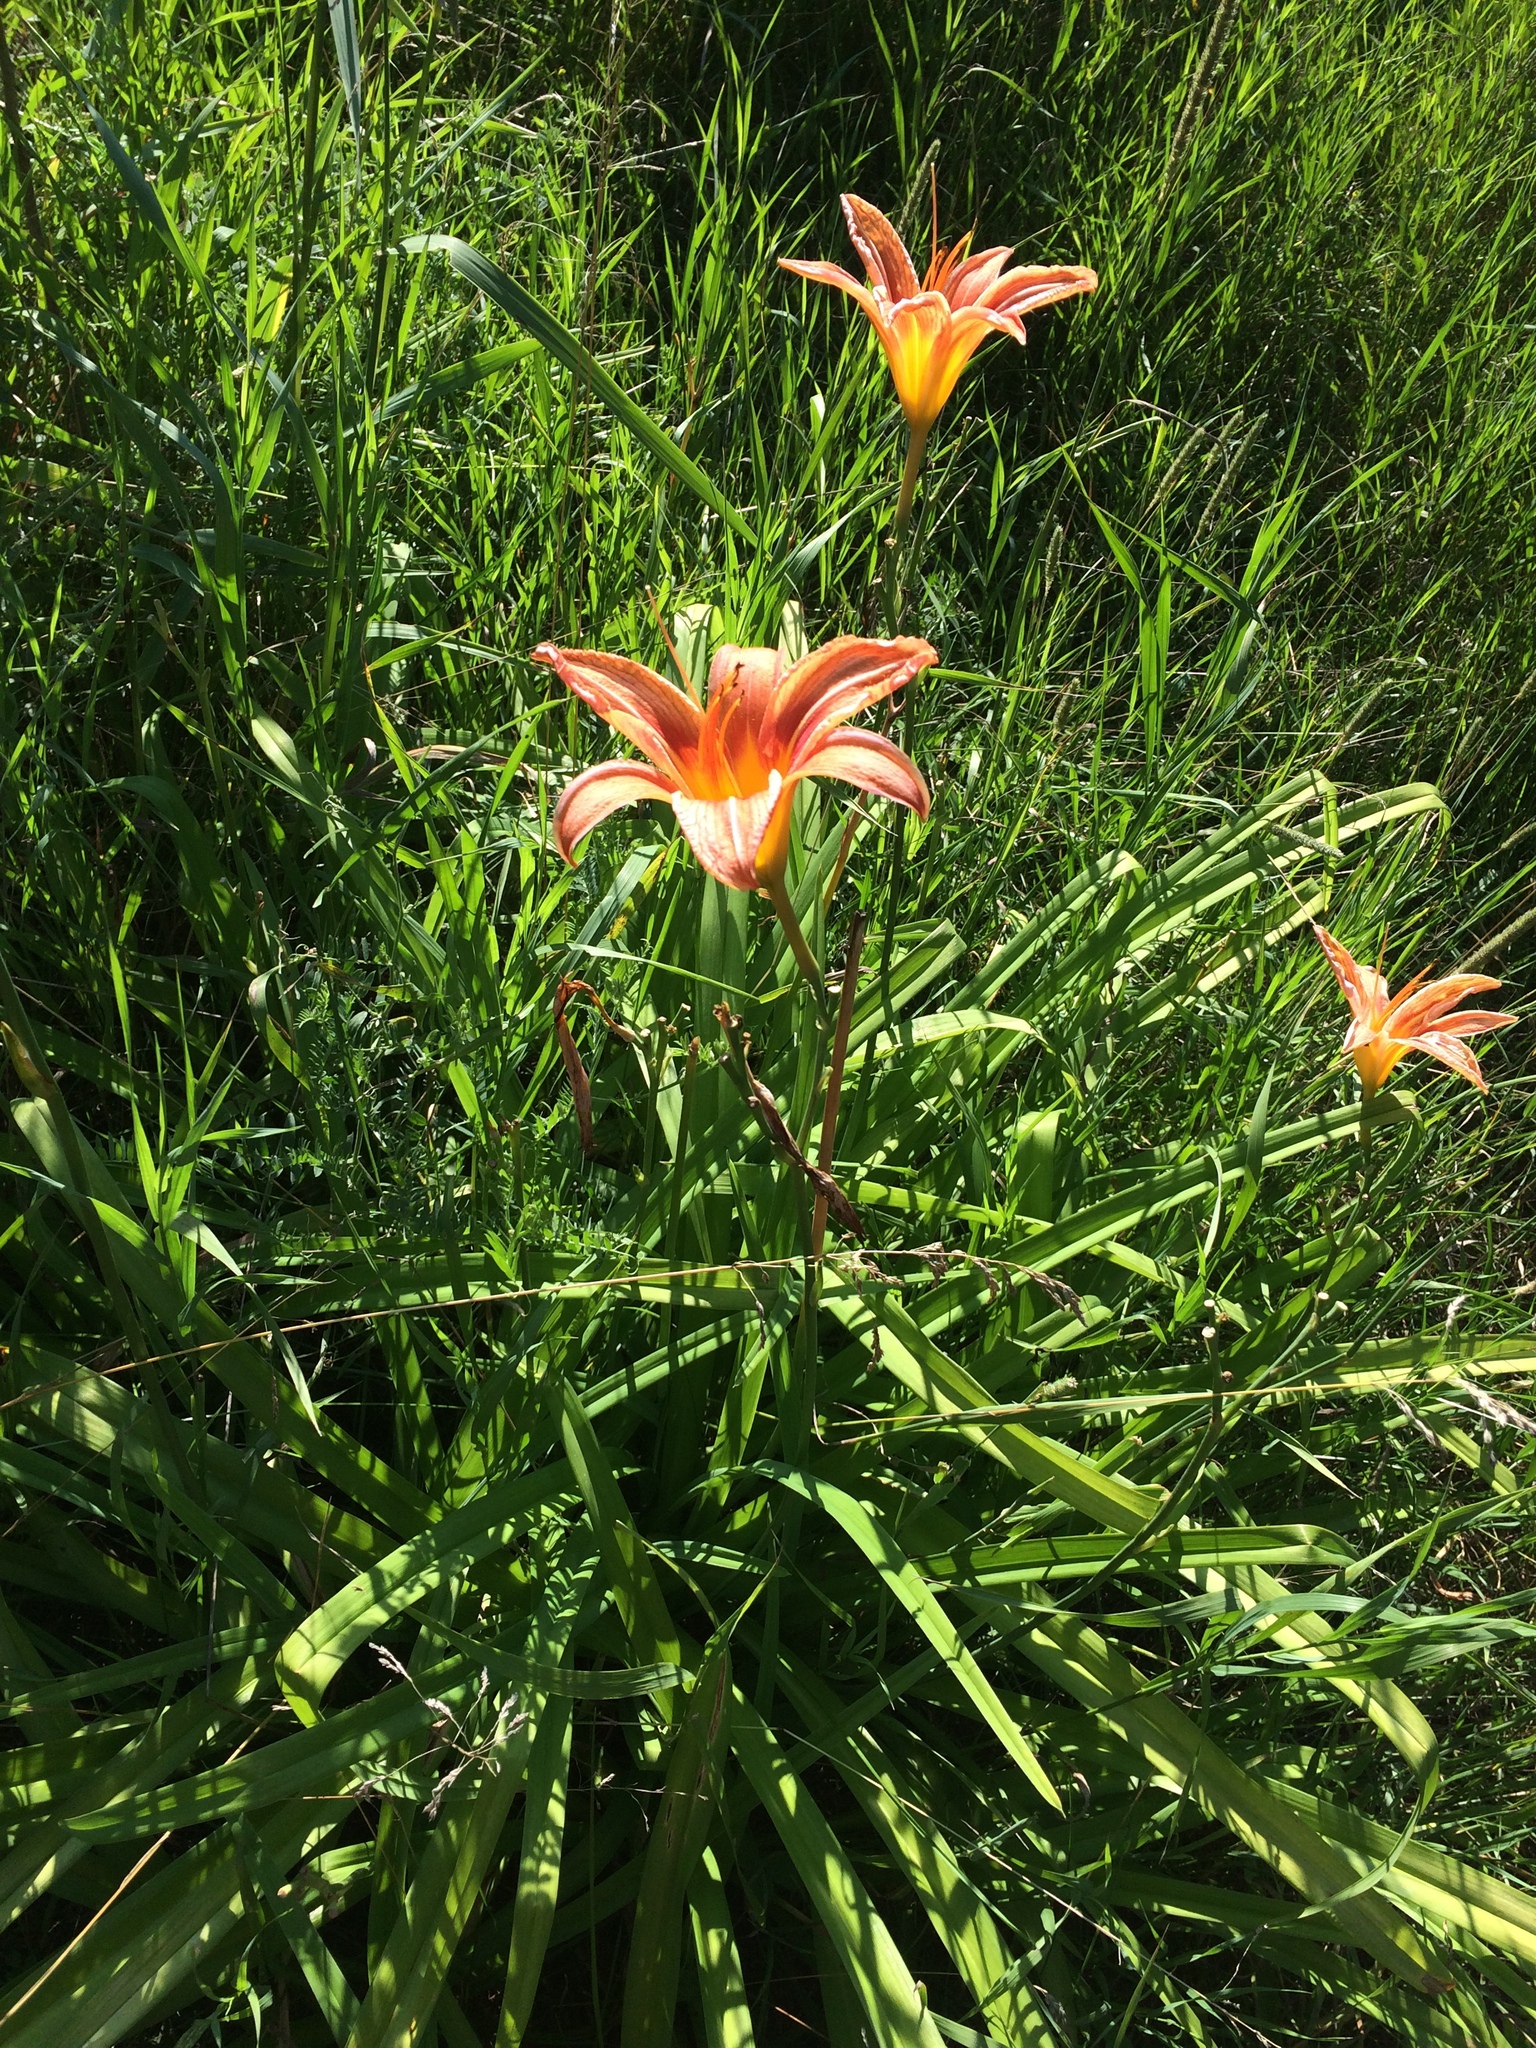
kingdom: Plantae
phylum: Tracheophyta
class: Liliopsida
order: Asparagales
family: Asphodelaceae
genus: Hemerocallis
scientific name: Hemerocallis fulva
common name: Orange day-lily
